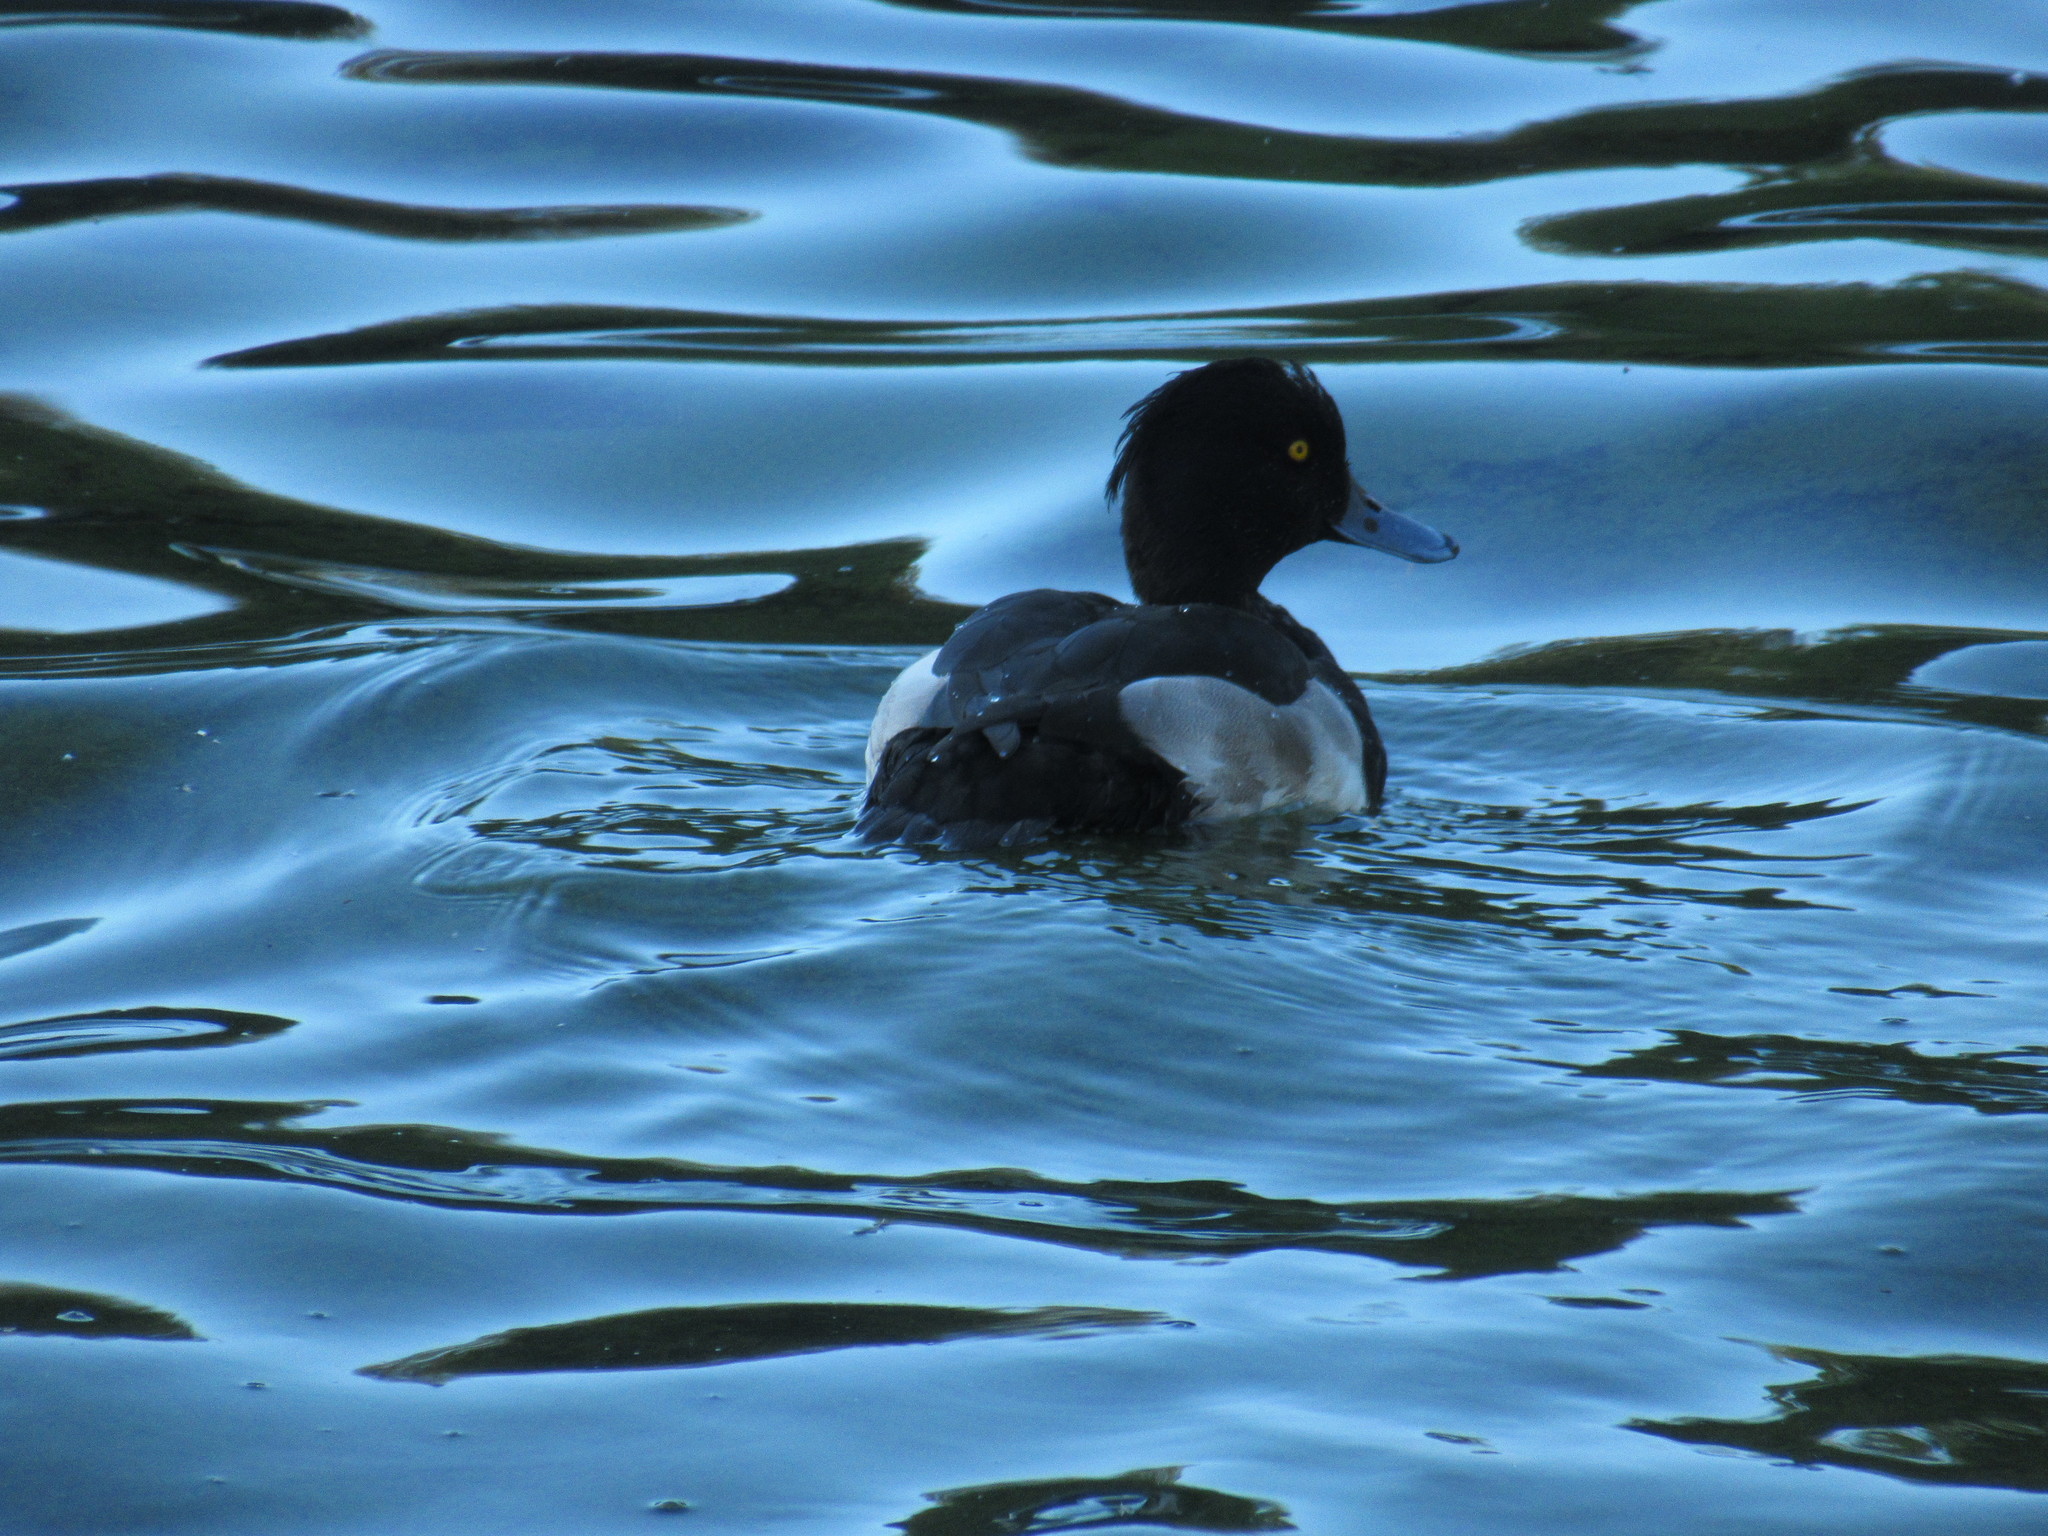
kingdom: Animalia
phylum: Chordata
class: Aves
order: Anseriformes
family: Anatidae
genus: Aythya
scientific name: Aythya fuligula
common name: Tufted duck
